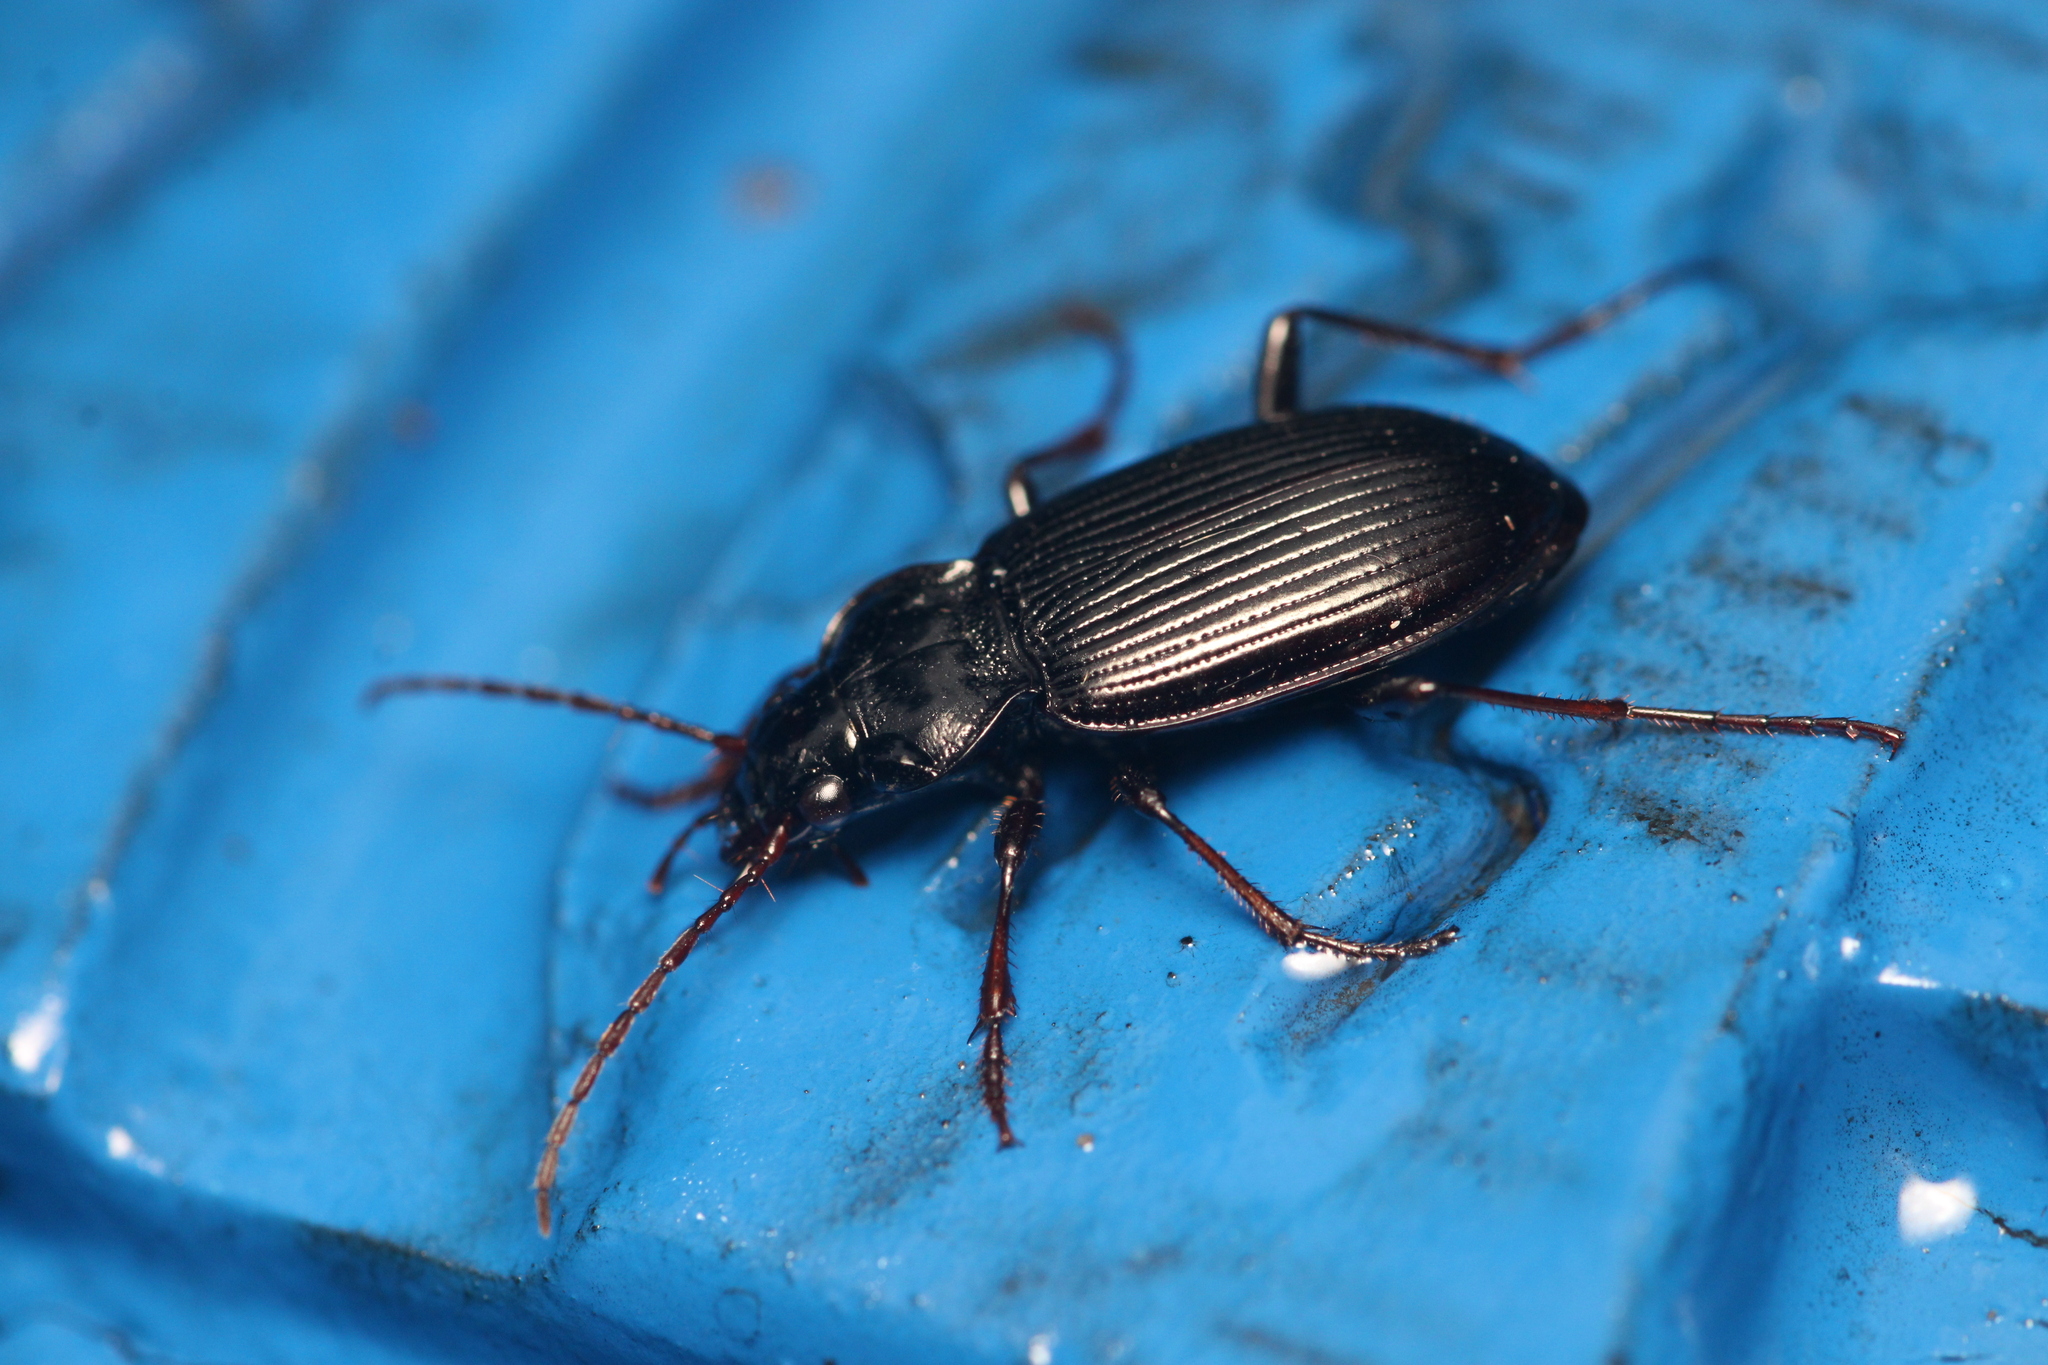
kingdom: Animalia
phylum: Arthropoda
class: Insecta
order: Coleoptera
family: Carabidae
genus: Nebria
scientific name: Nebria brevicollis
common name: Short-necked gazelle beetle
